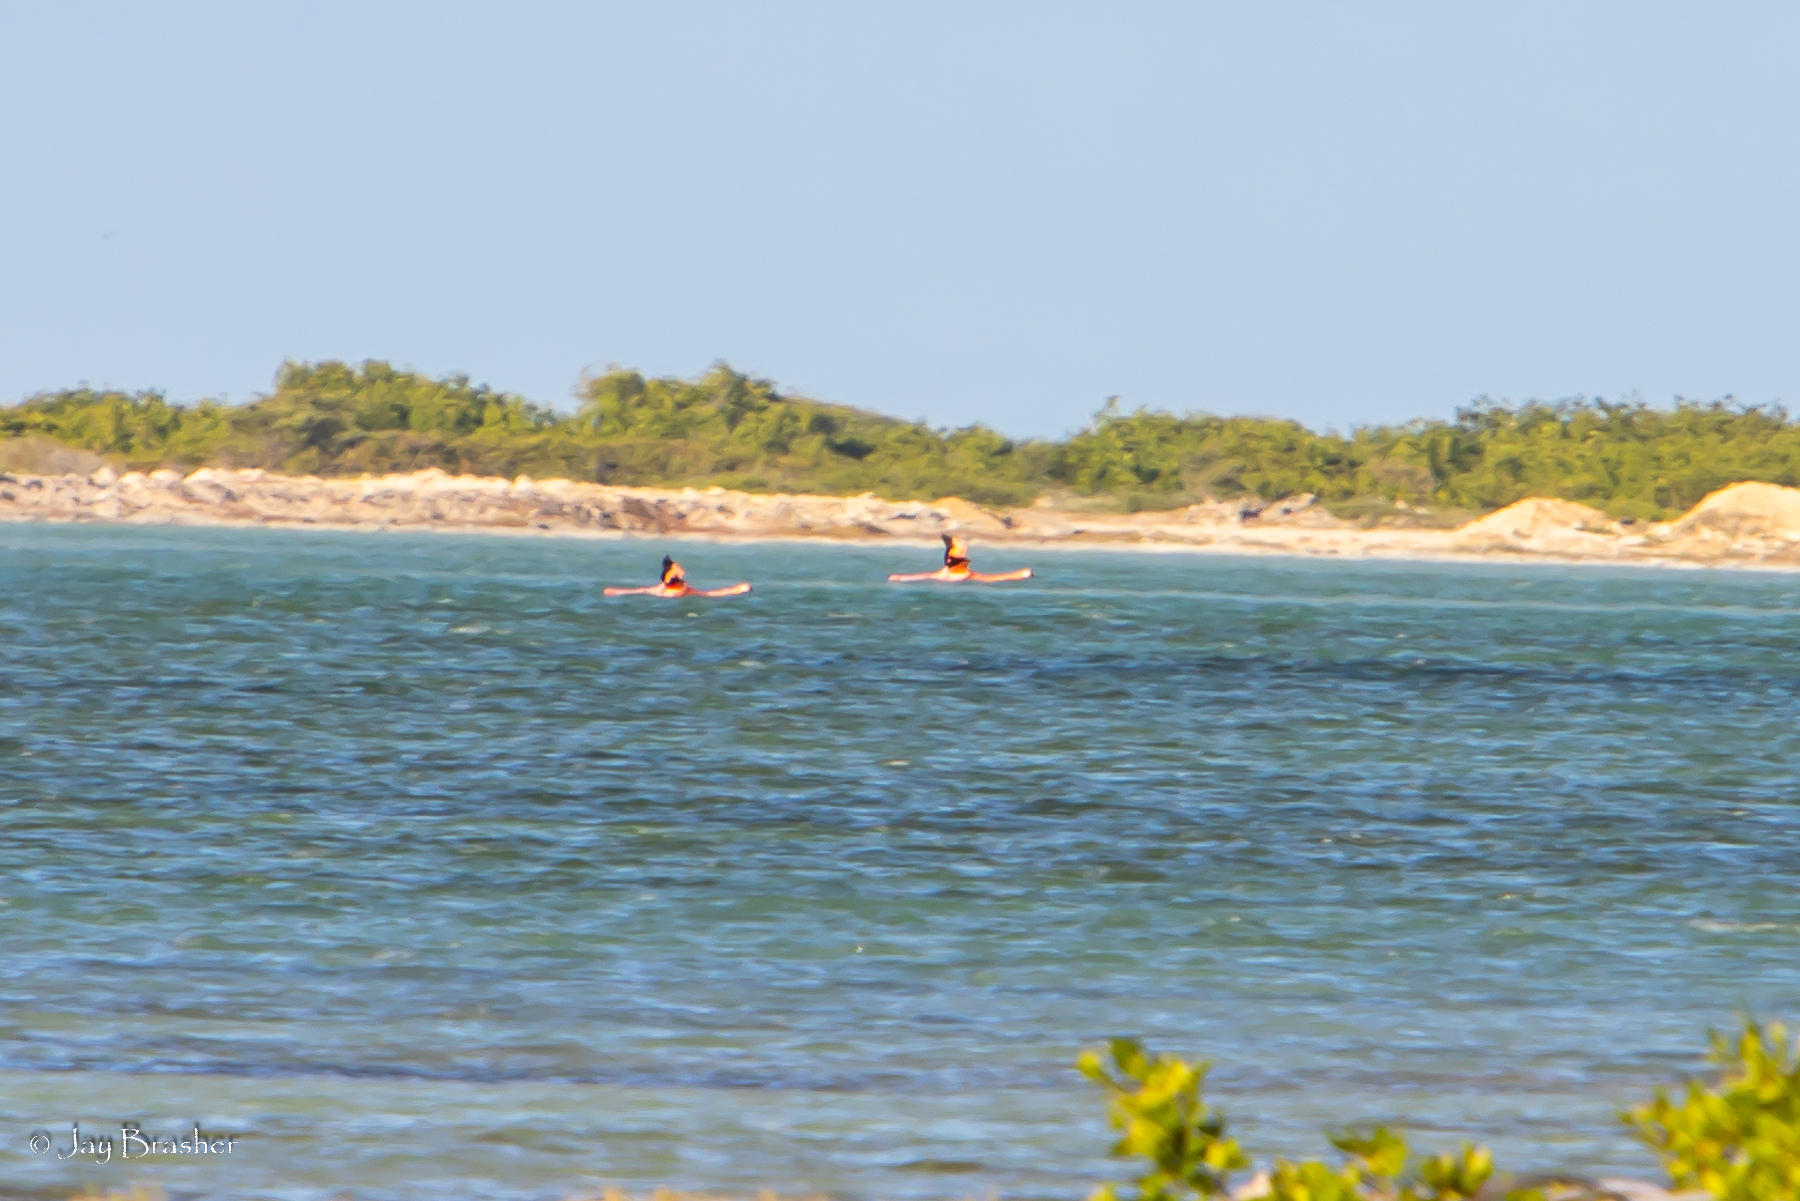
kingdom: Animalia
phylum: Chordata
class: Aves
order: Phoenicopteriformes
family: Phoenicopteridae
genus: Phoenicopterus
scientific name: Phoenicopterus ruber
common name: American flamingo
